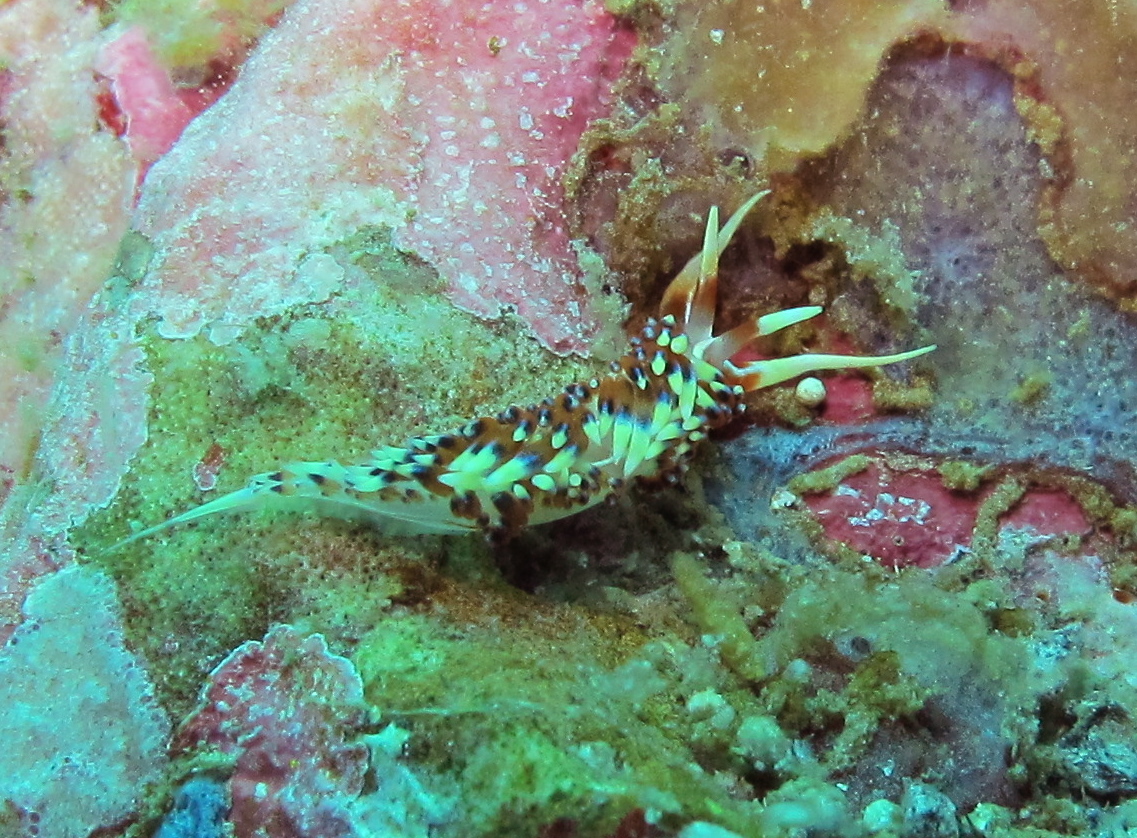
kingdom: Animalia
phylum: Mollusca
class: Gastropoda
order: Nudibranchia
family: Facelinidae
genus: Caloria
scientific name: Caloria indica
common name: Sea slug
